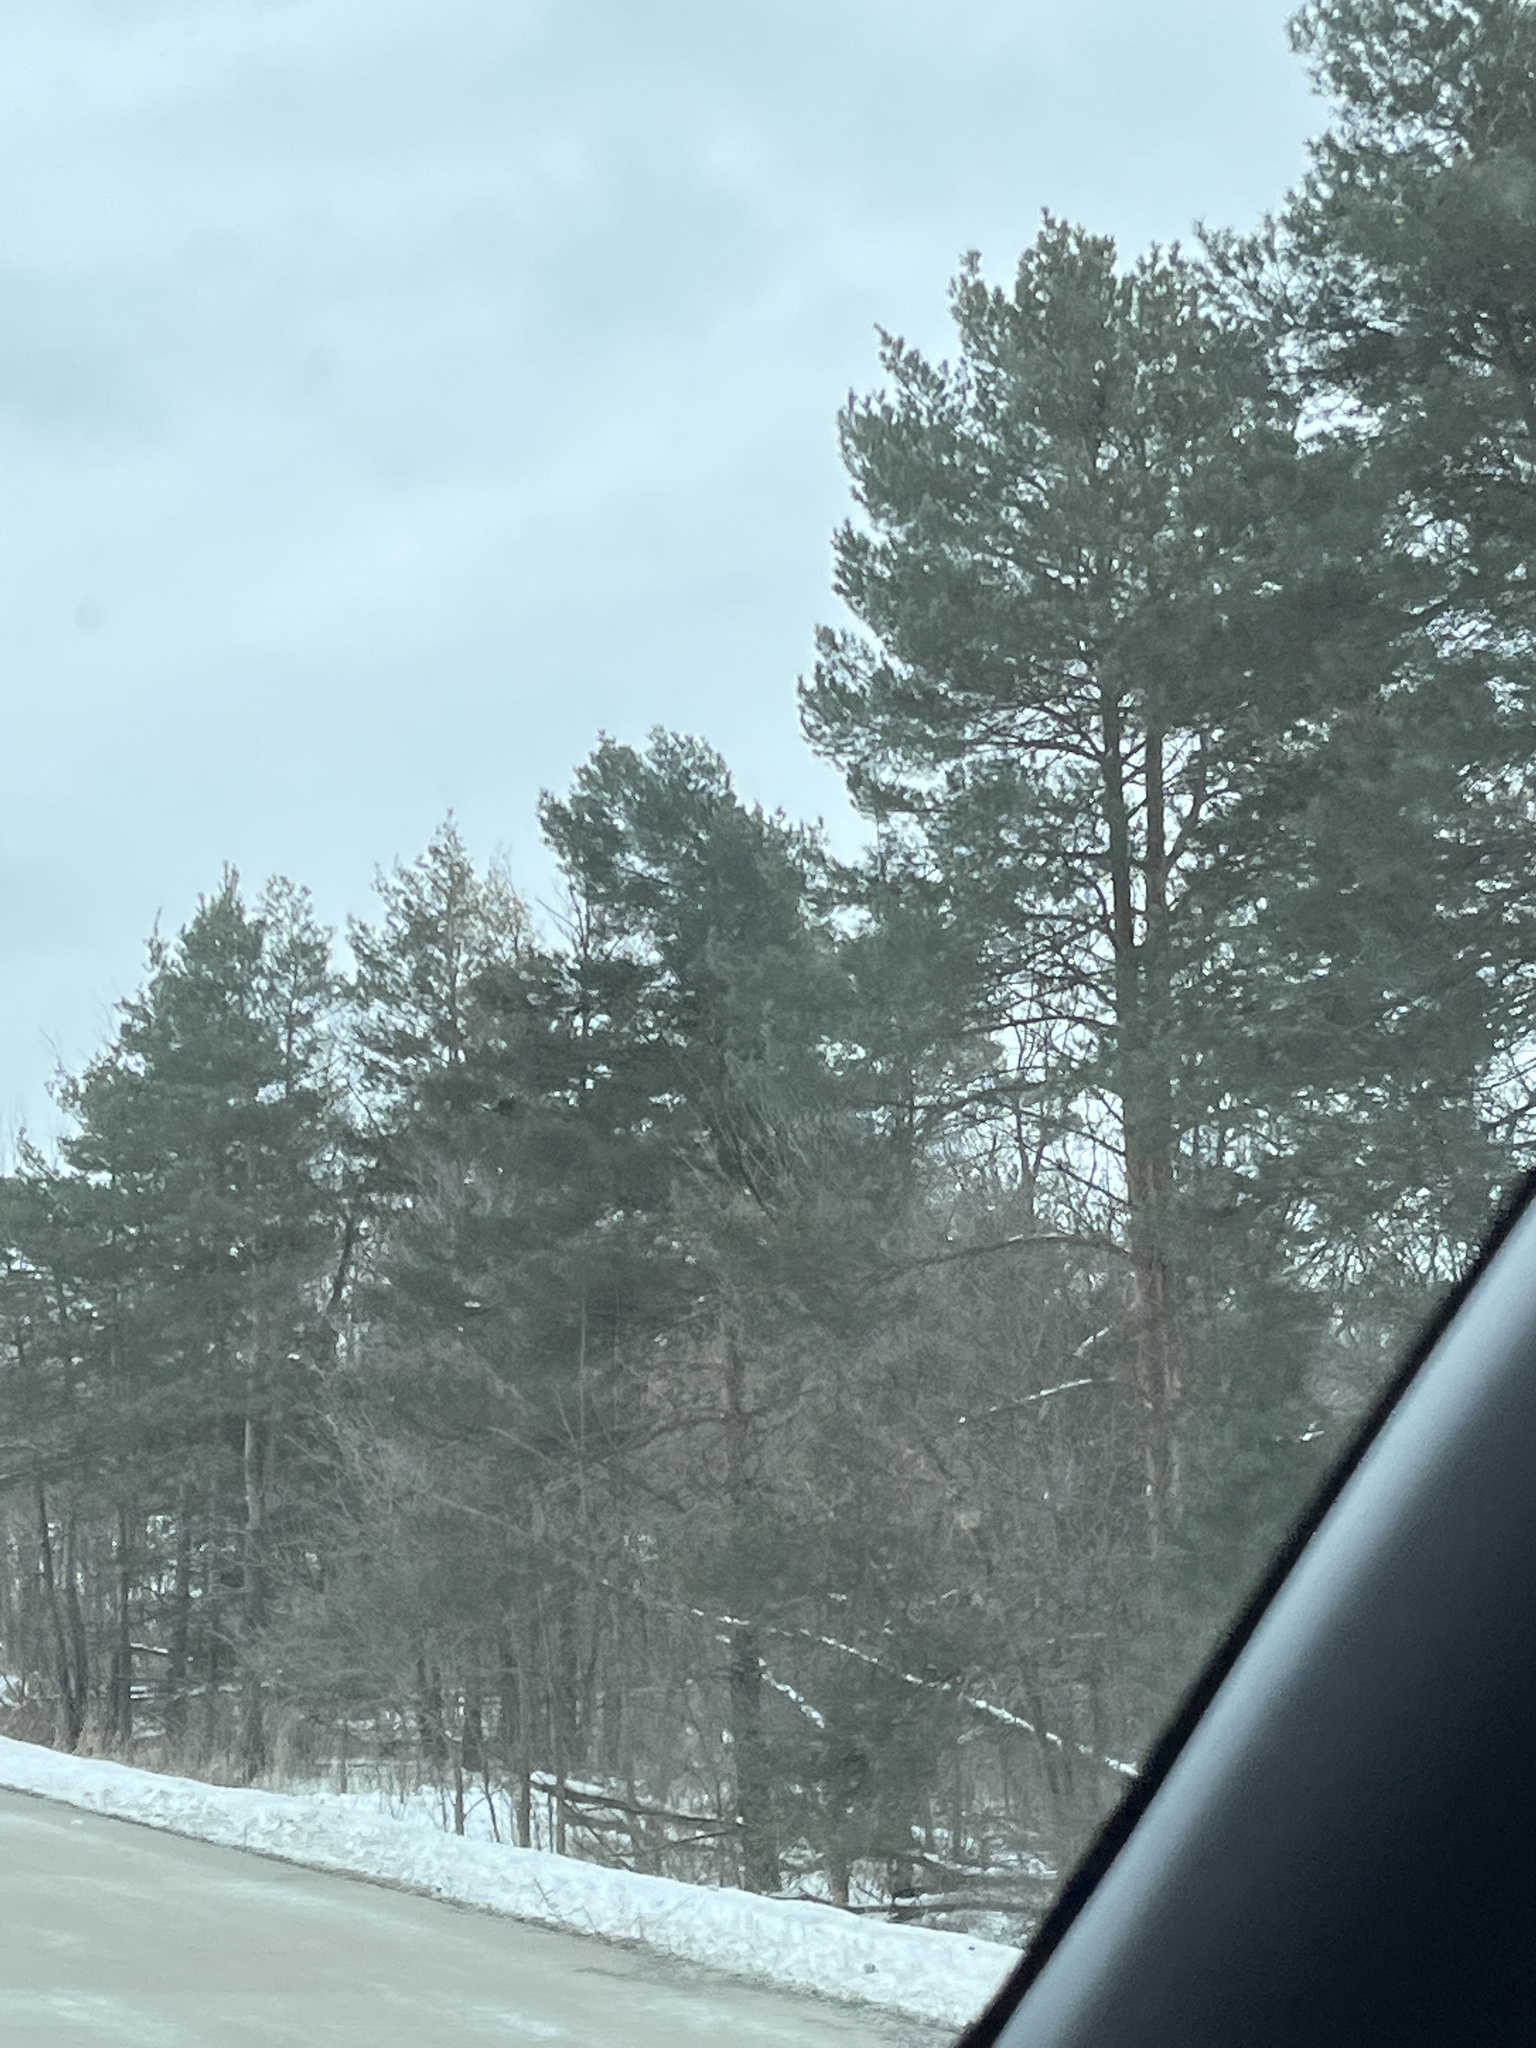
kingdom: Plantae
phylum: Tracheophyta
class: Pinopsida
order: Pinales
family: Pinaceae
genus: Pinus
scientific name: Pinus strobus
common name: Weymouth pine
